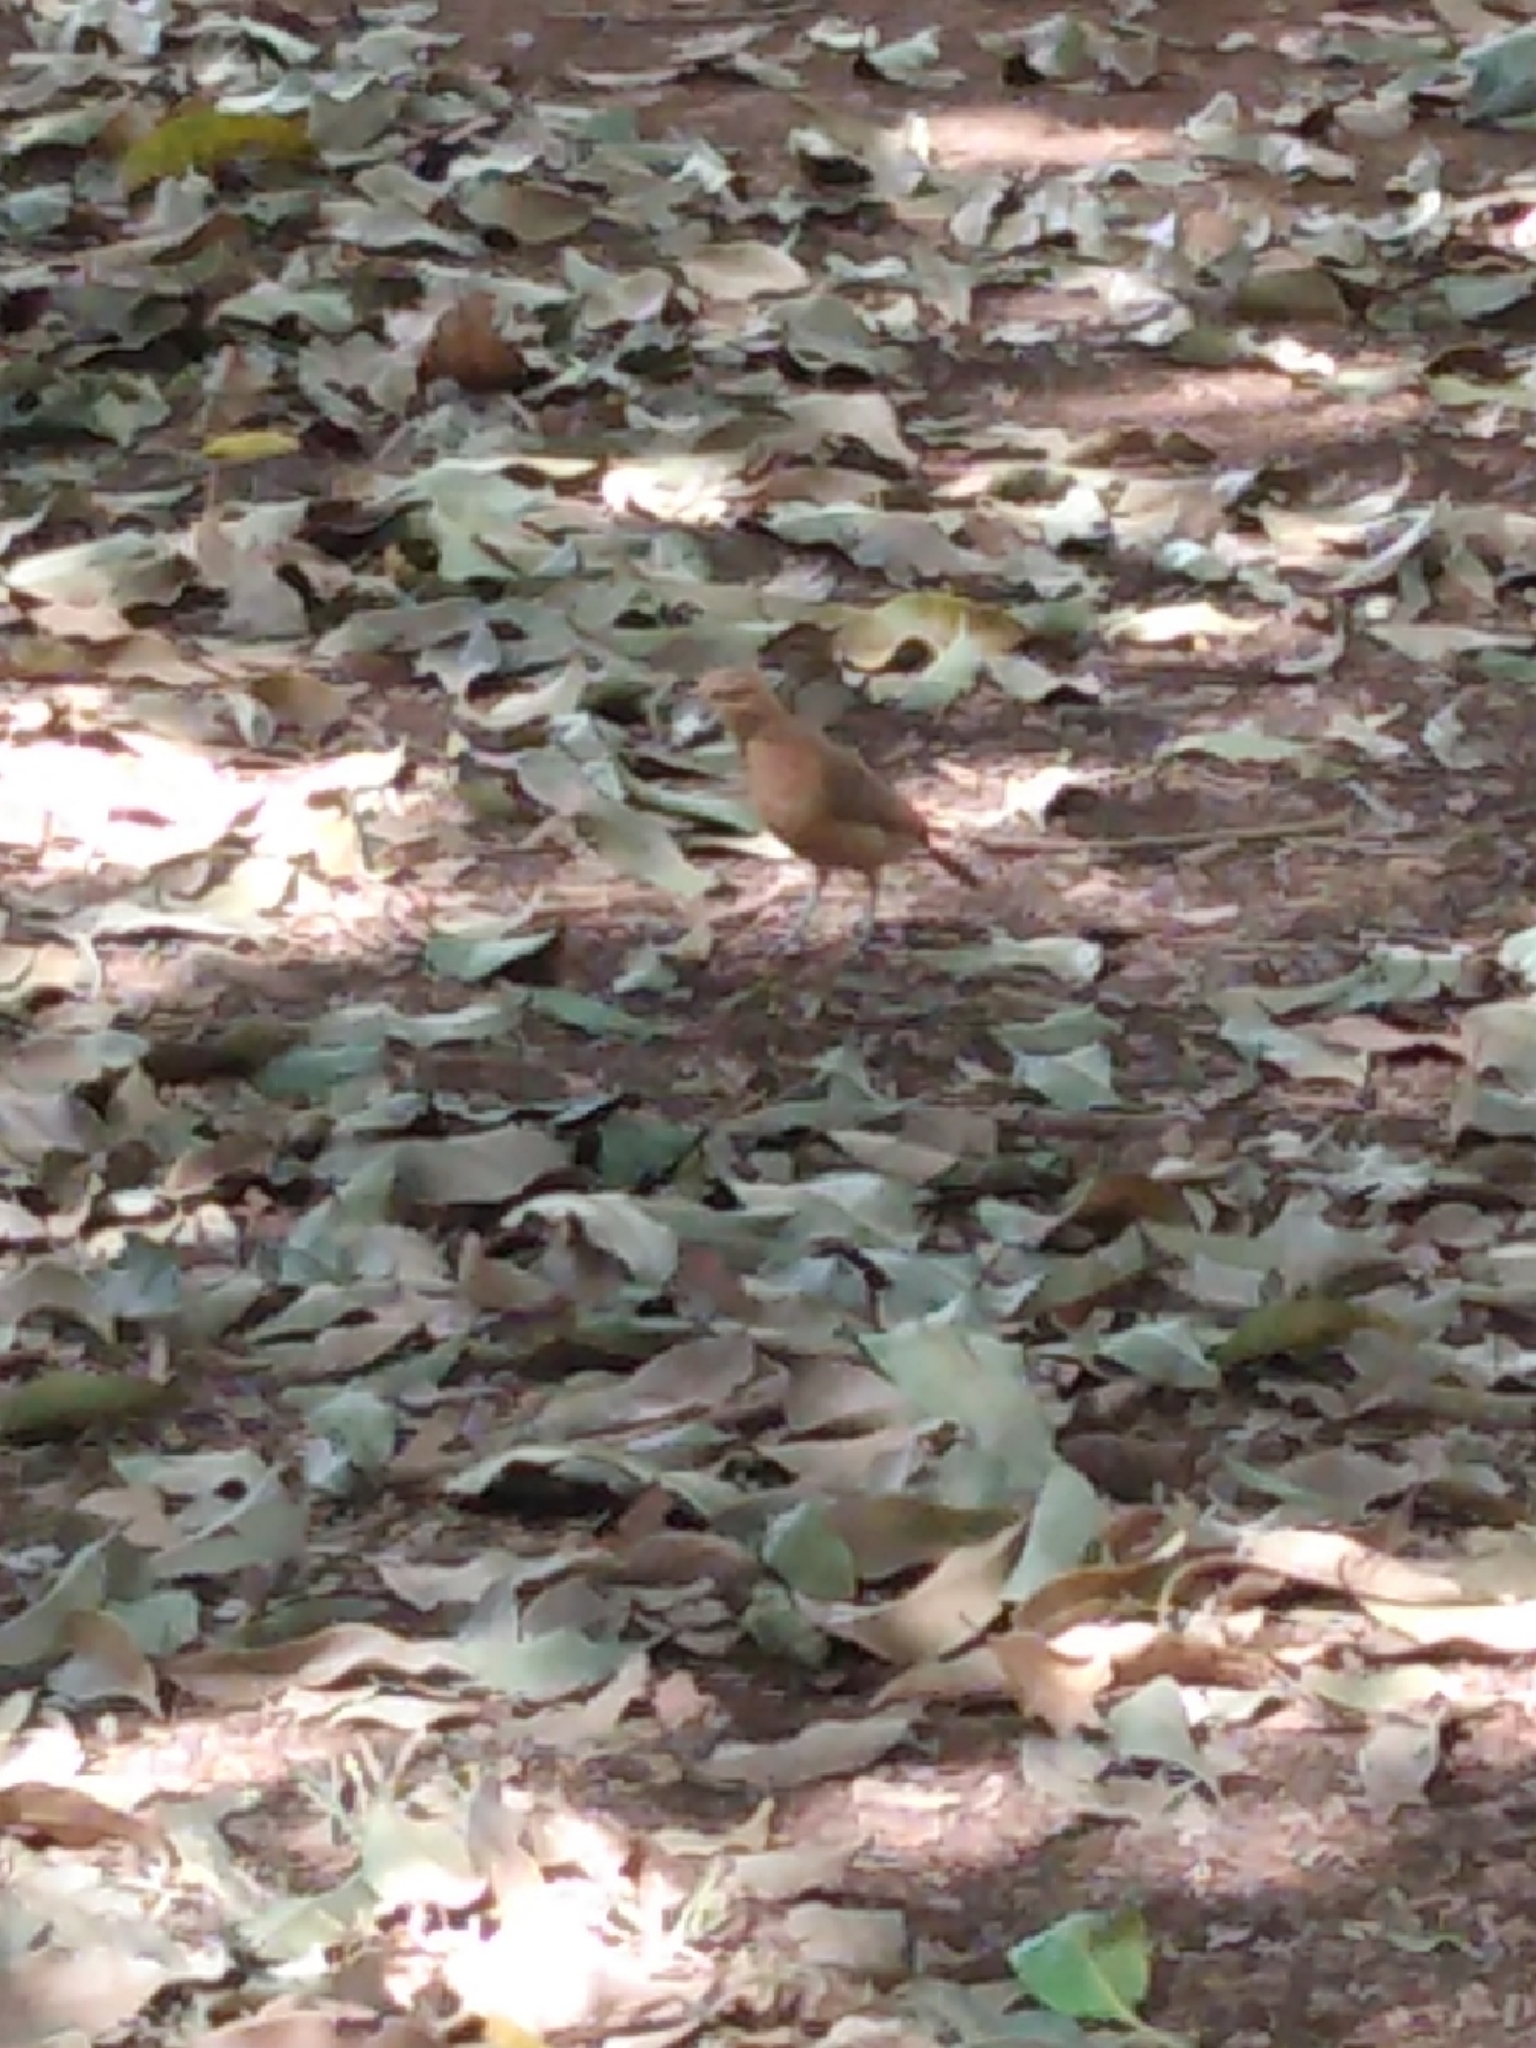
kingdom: Animalia
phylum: Chordata
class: Aves
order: Passeriformes
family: Furnariidae
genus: Furnarius
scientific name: Furnarius rufus
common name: Rufous hornero
